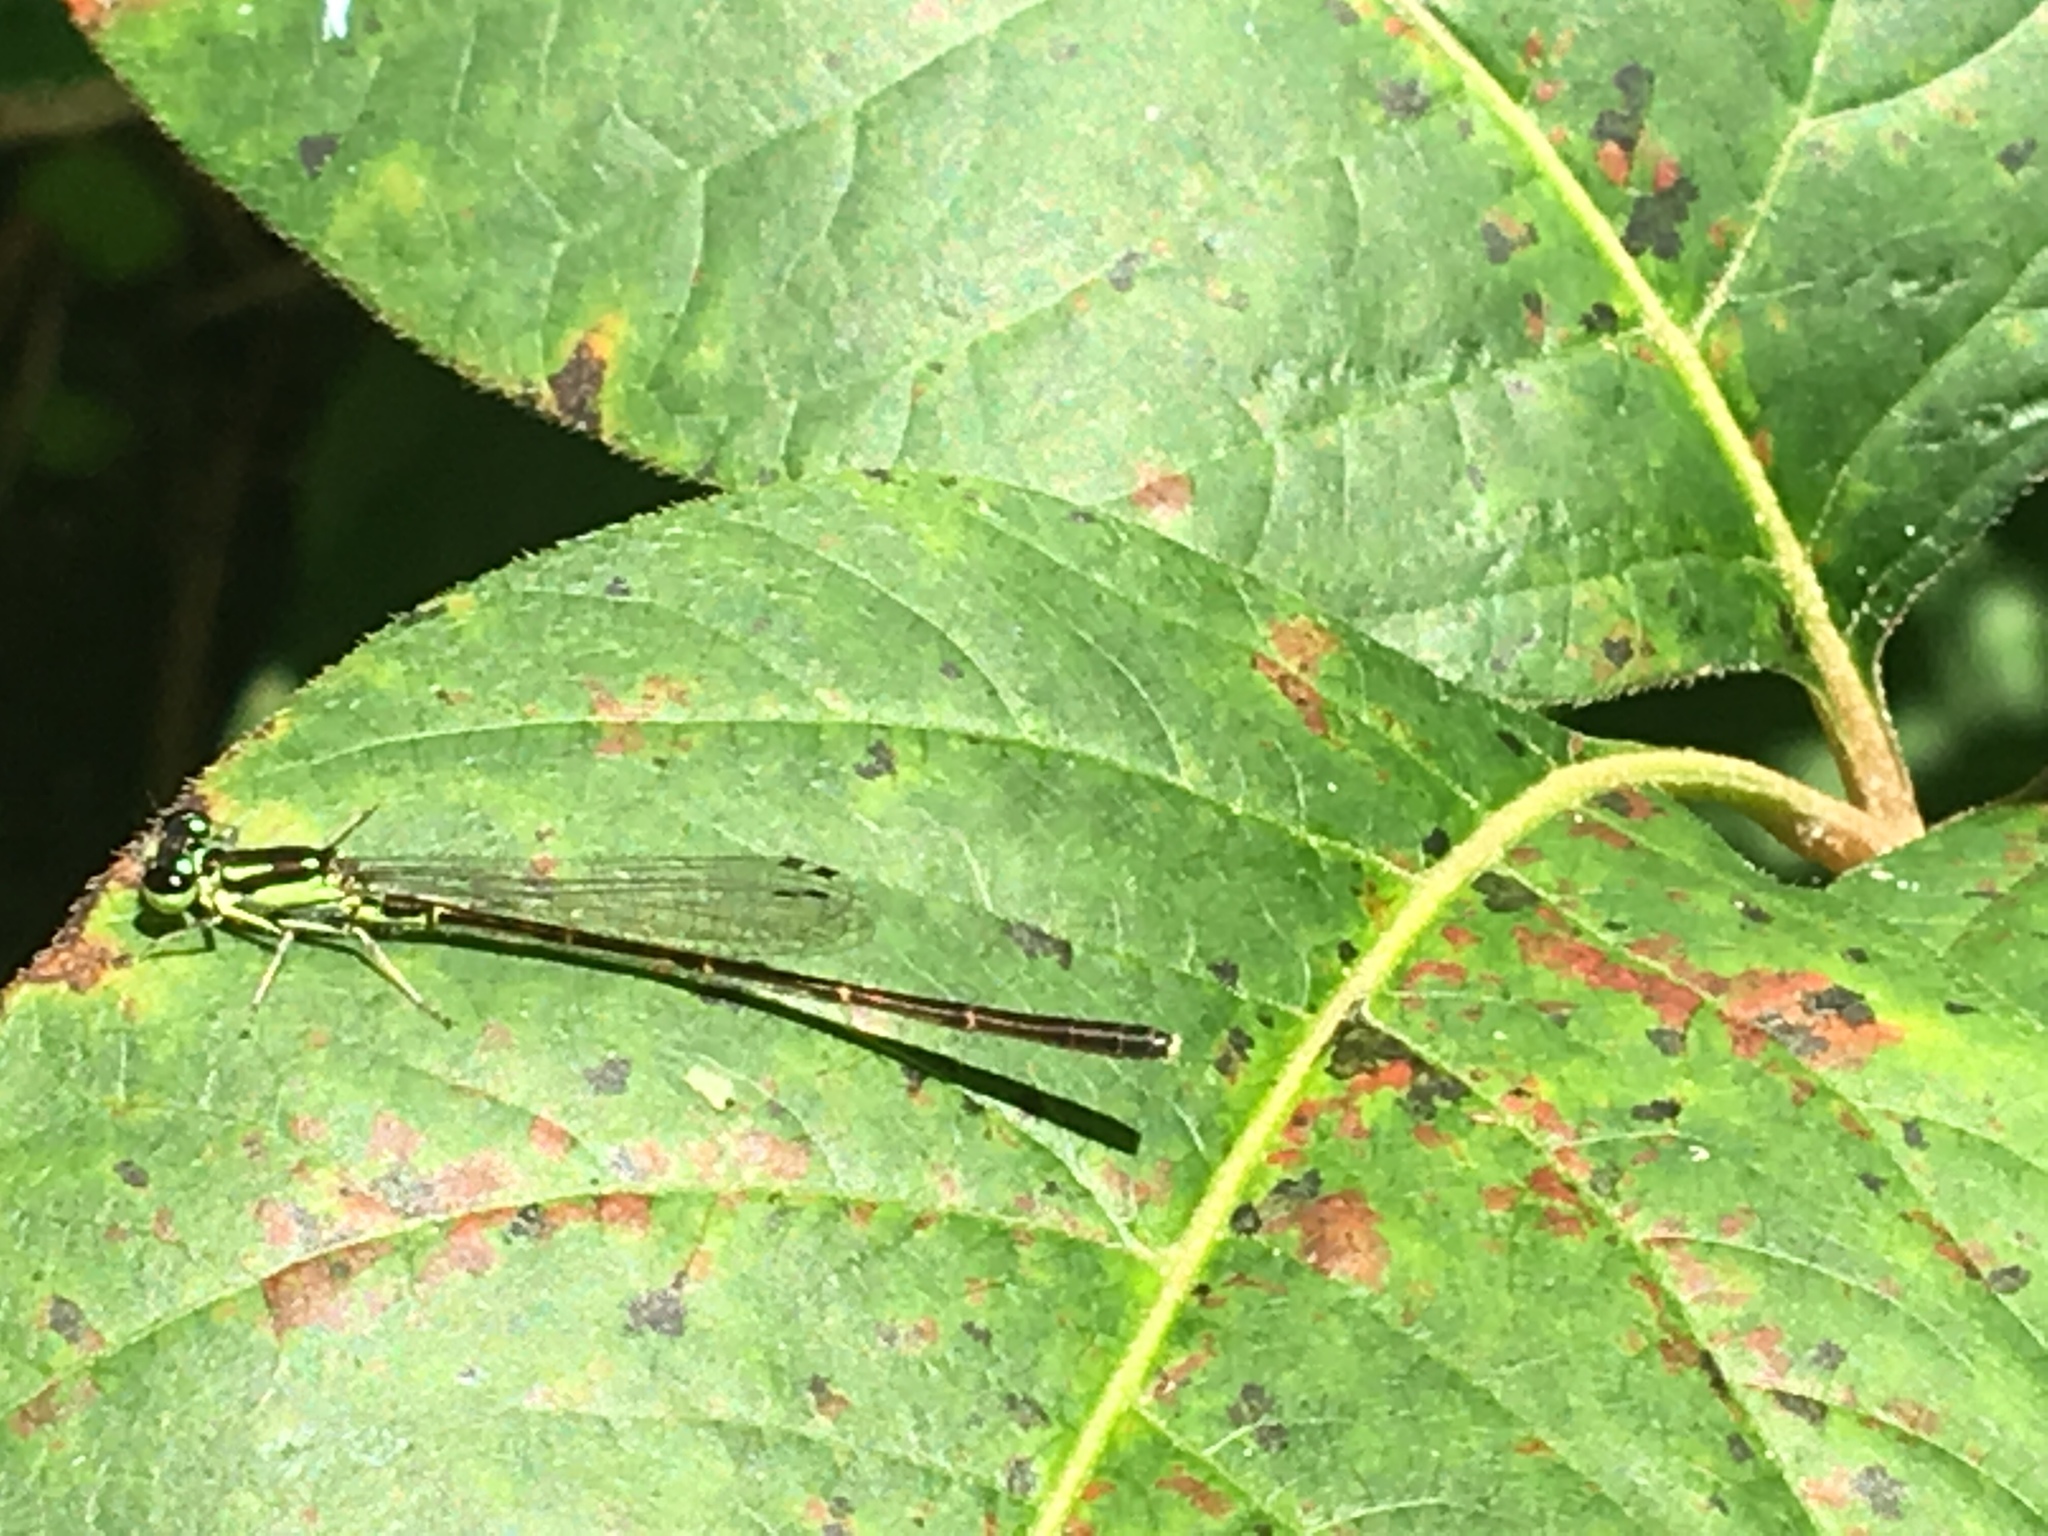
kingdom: Animalia
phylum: Arthropoda
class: Insecta
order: Odonata
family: Coenagrionidae
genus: Ischnura
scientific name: Ischnura posita
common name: Fragile forktail
